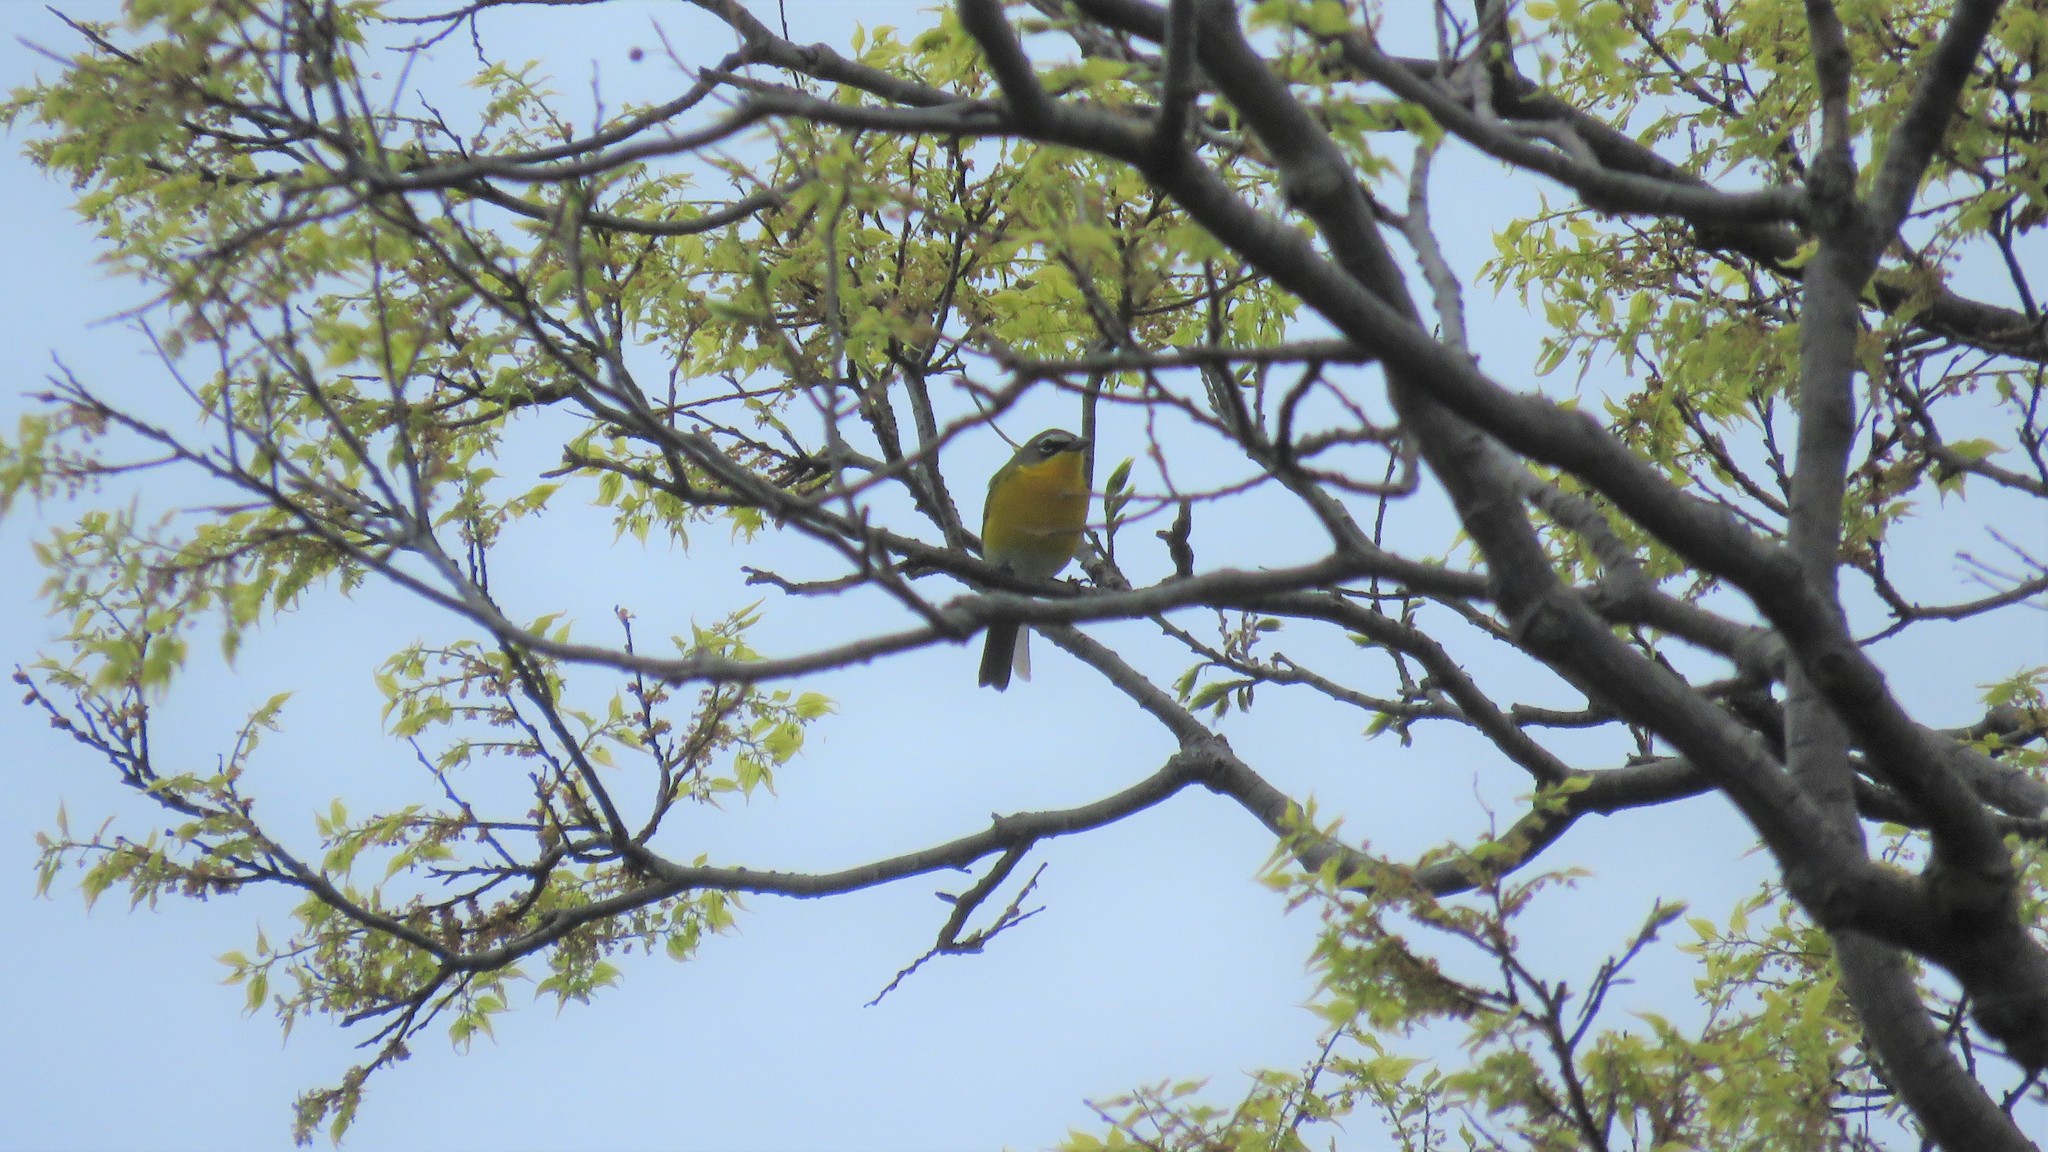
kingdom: Animalia
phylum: Chordata
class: Aves
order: Passeriformes
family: Parulidae
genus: Icteria
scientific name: Icteria virens
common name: Yellow-breasted chat
